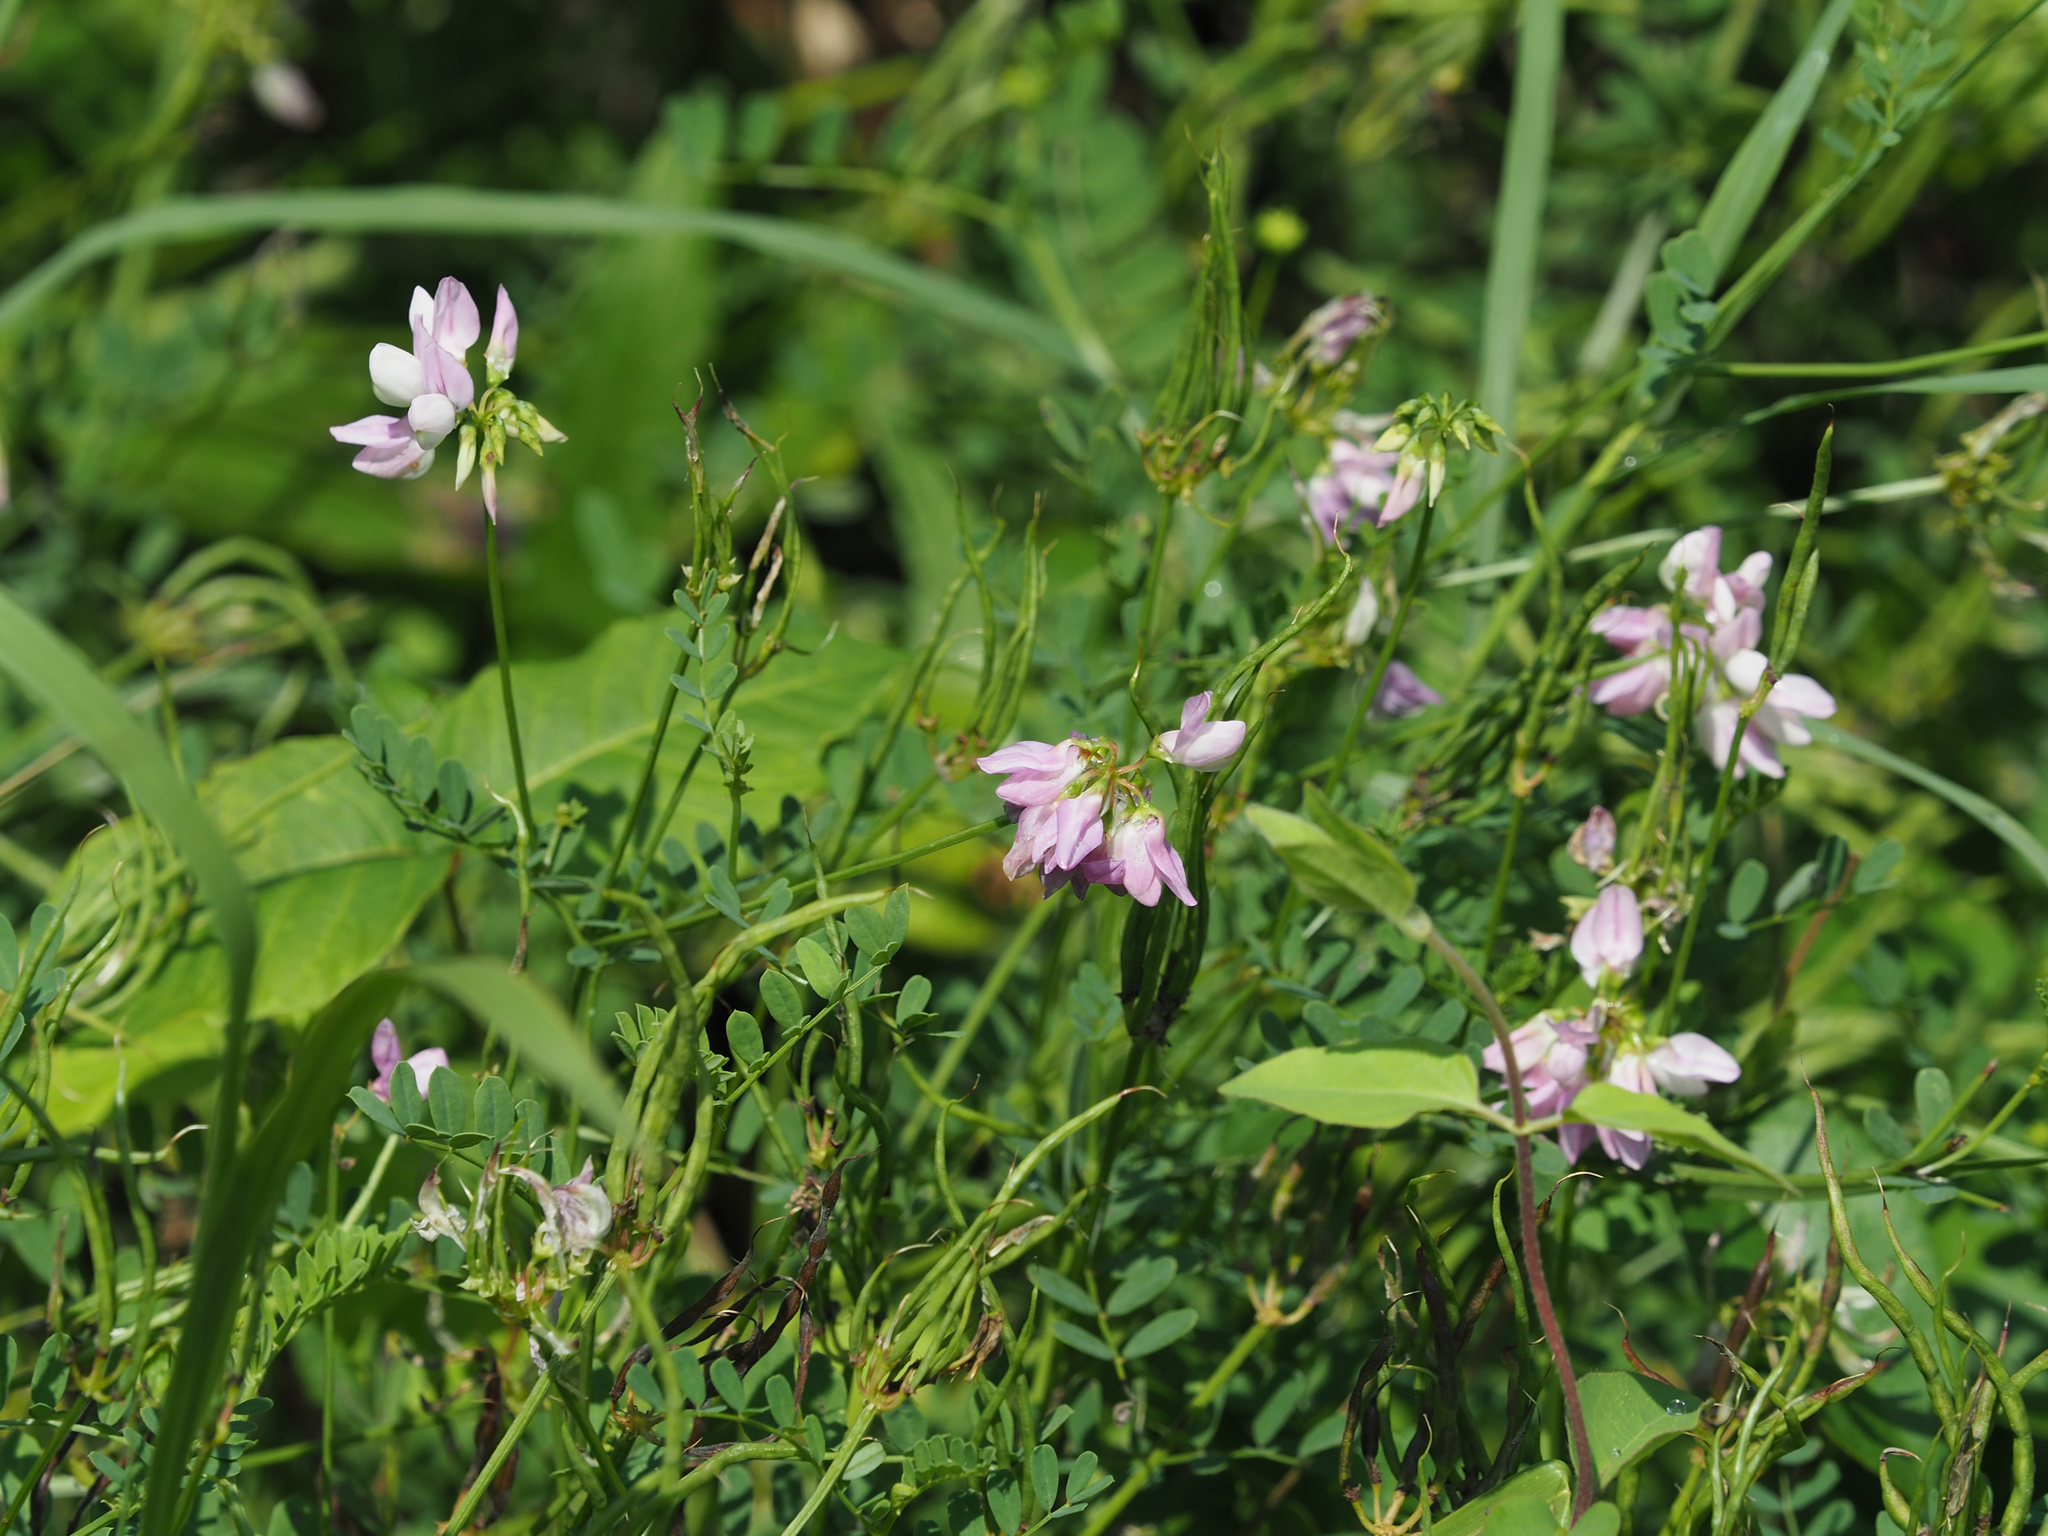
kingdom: Plantae
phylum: Tracheophyta
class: Magnoliopsida
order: Fabales
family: Fabaceae
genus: Coronilla
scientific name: Coronilla varia
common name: Crownvetch
